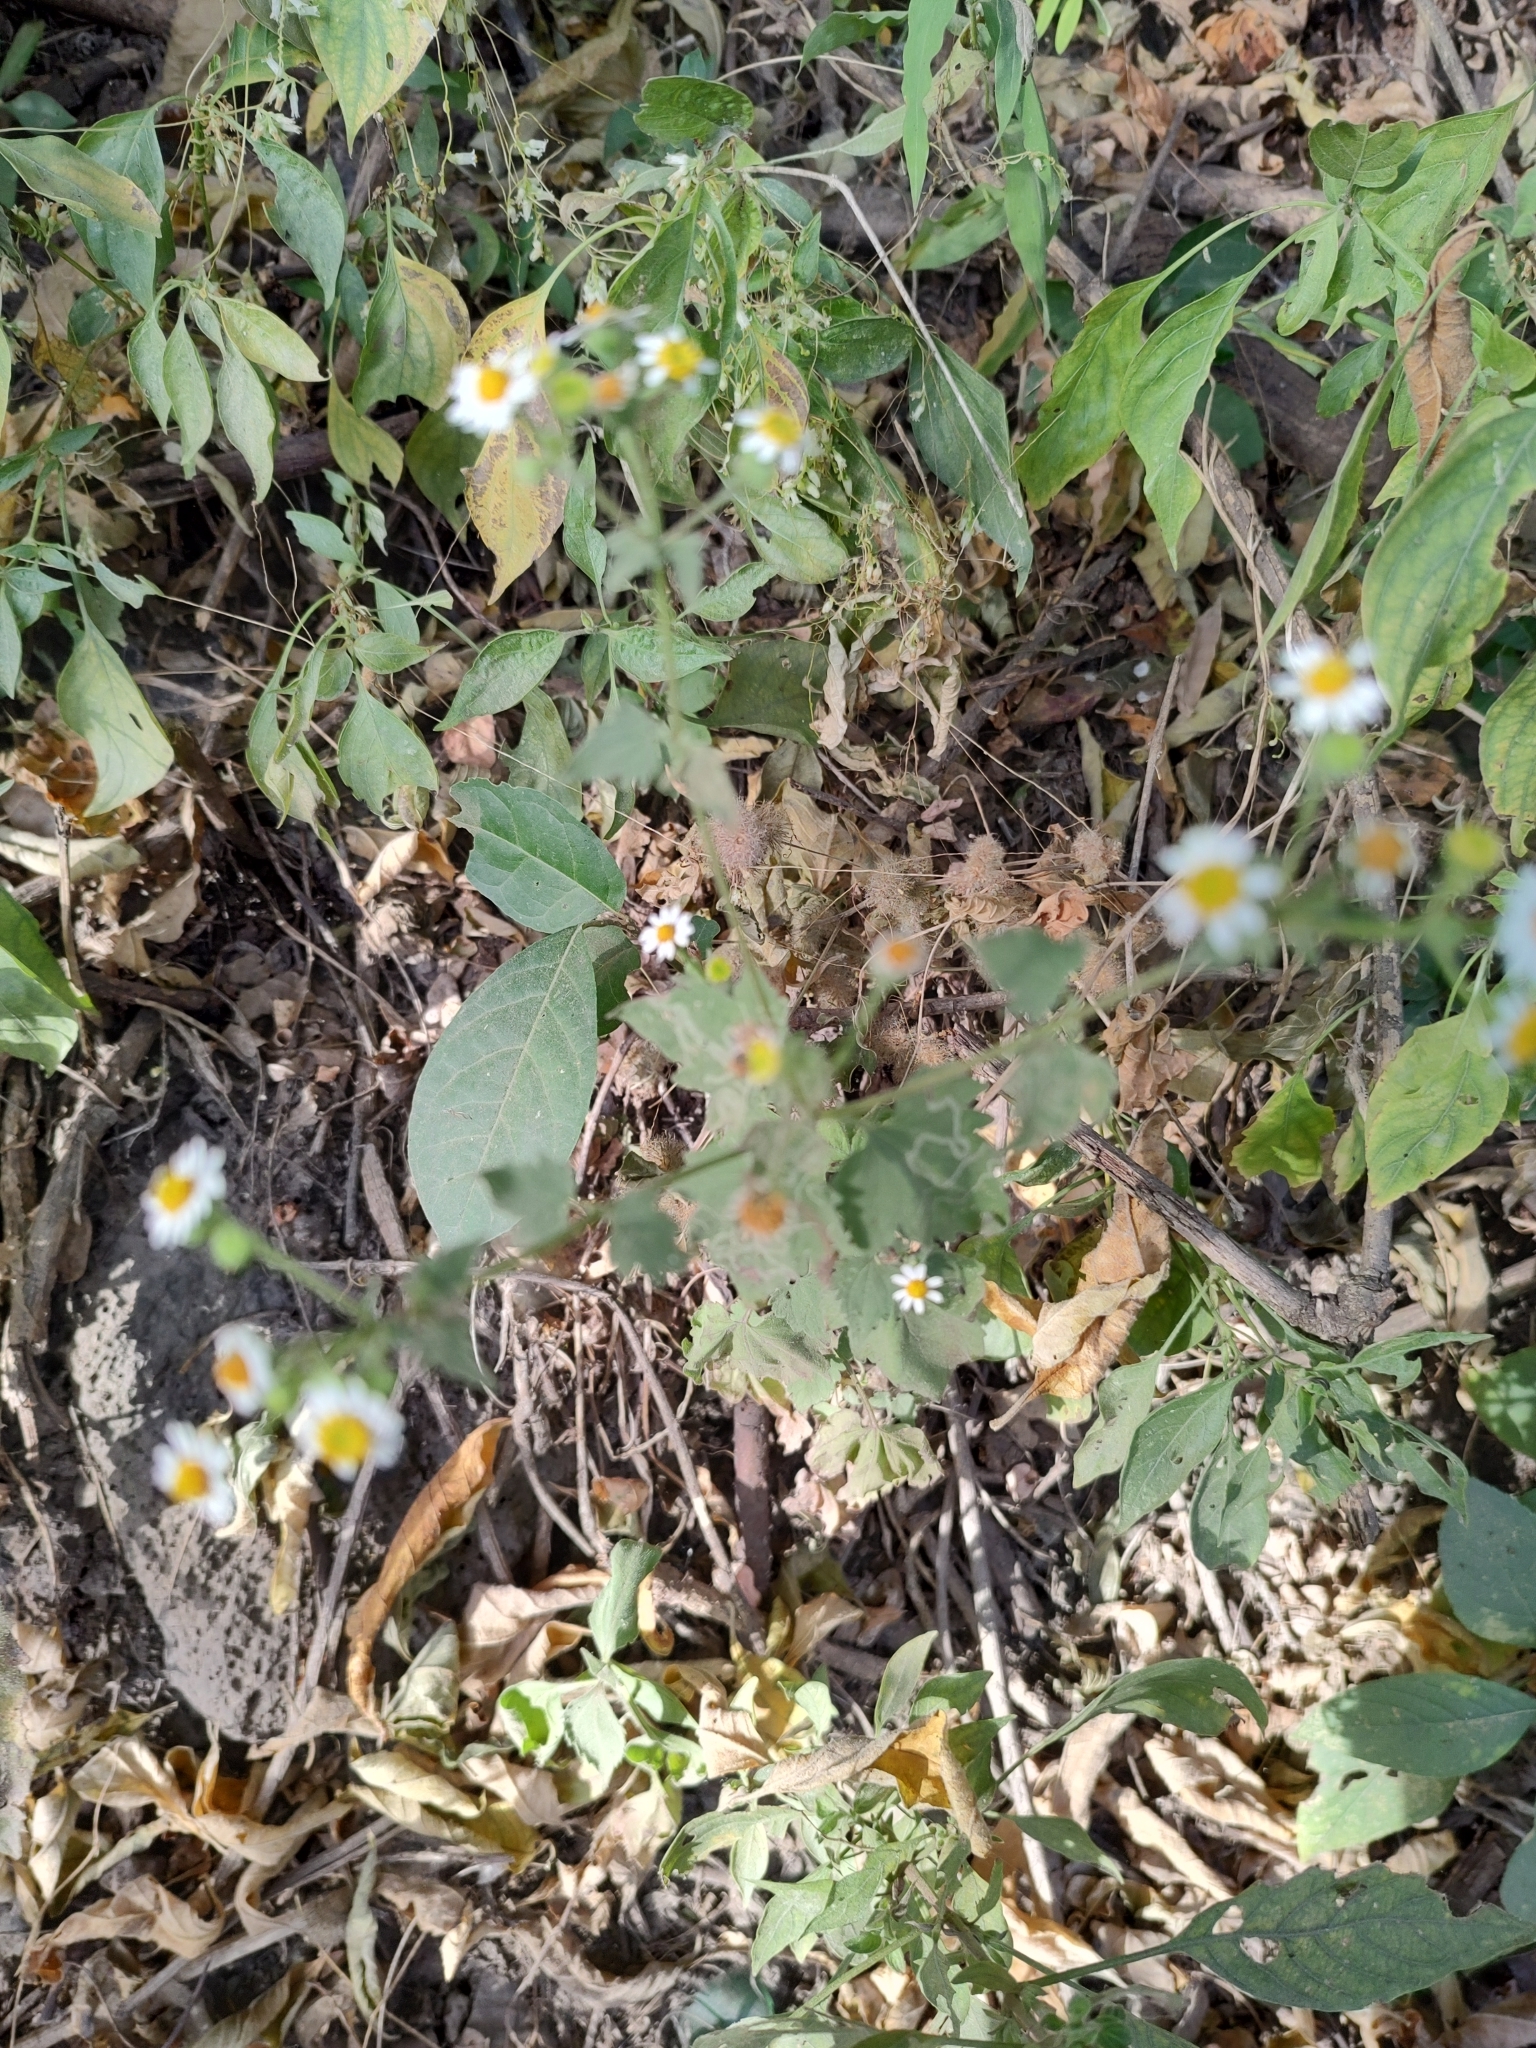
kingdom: Plantae
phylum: Tracheophyta
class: Magnoliopsida
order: Asterales
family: Asteraceae
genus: Galinsogeopsis
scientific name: Galinsogeopsis spilanthoides
